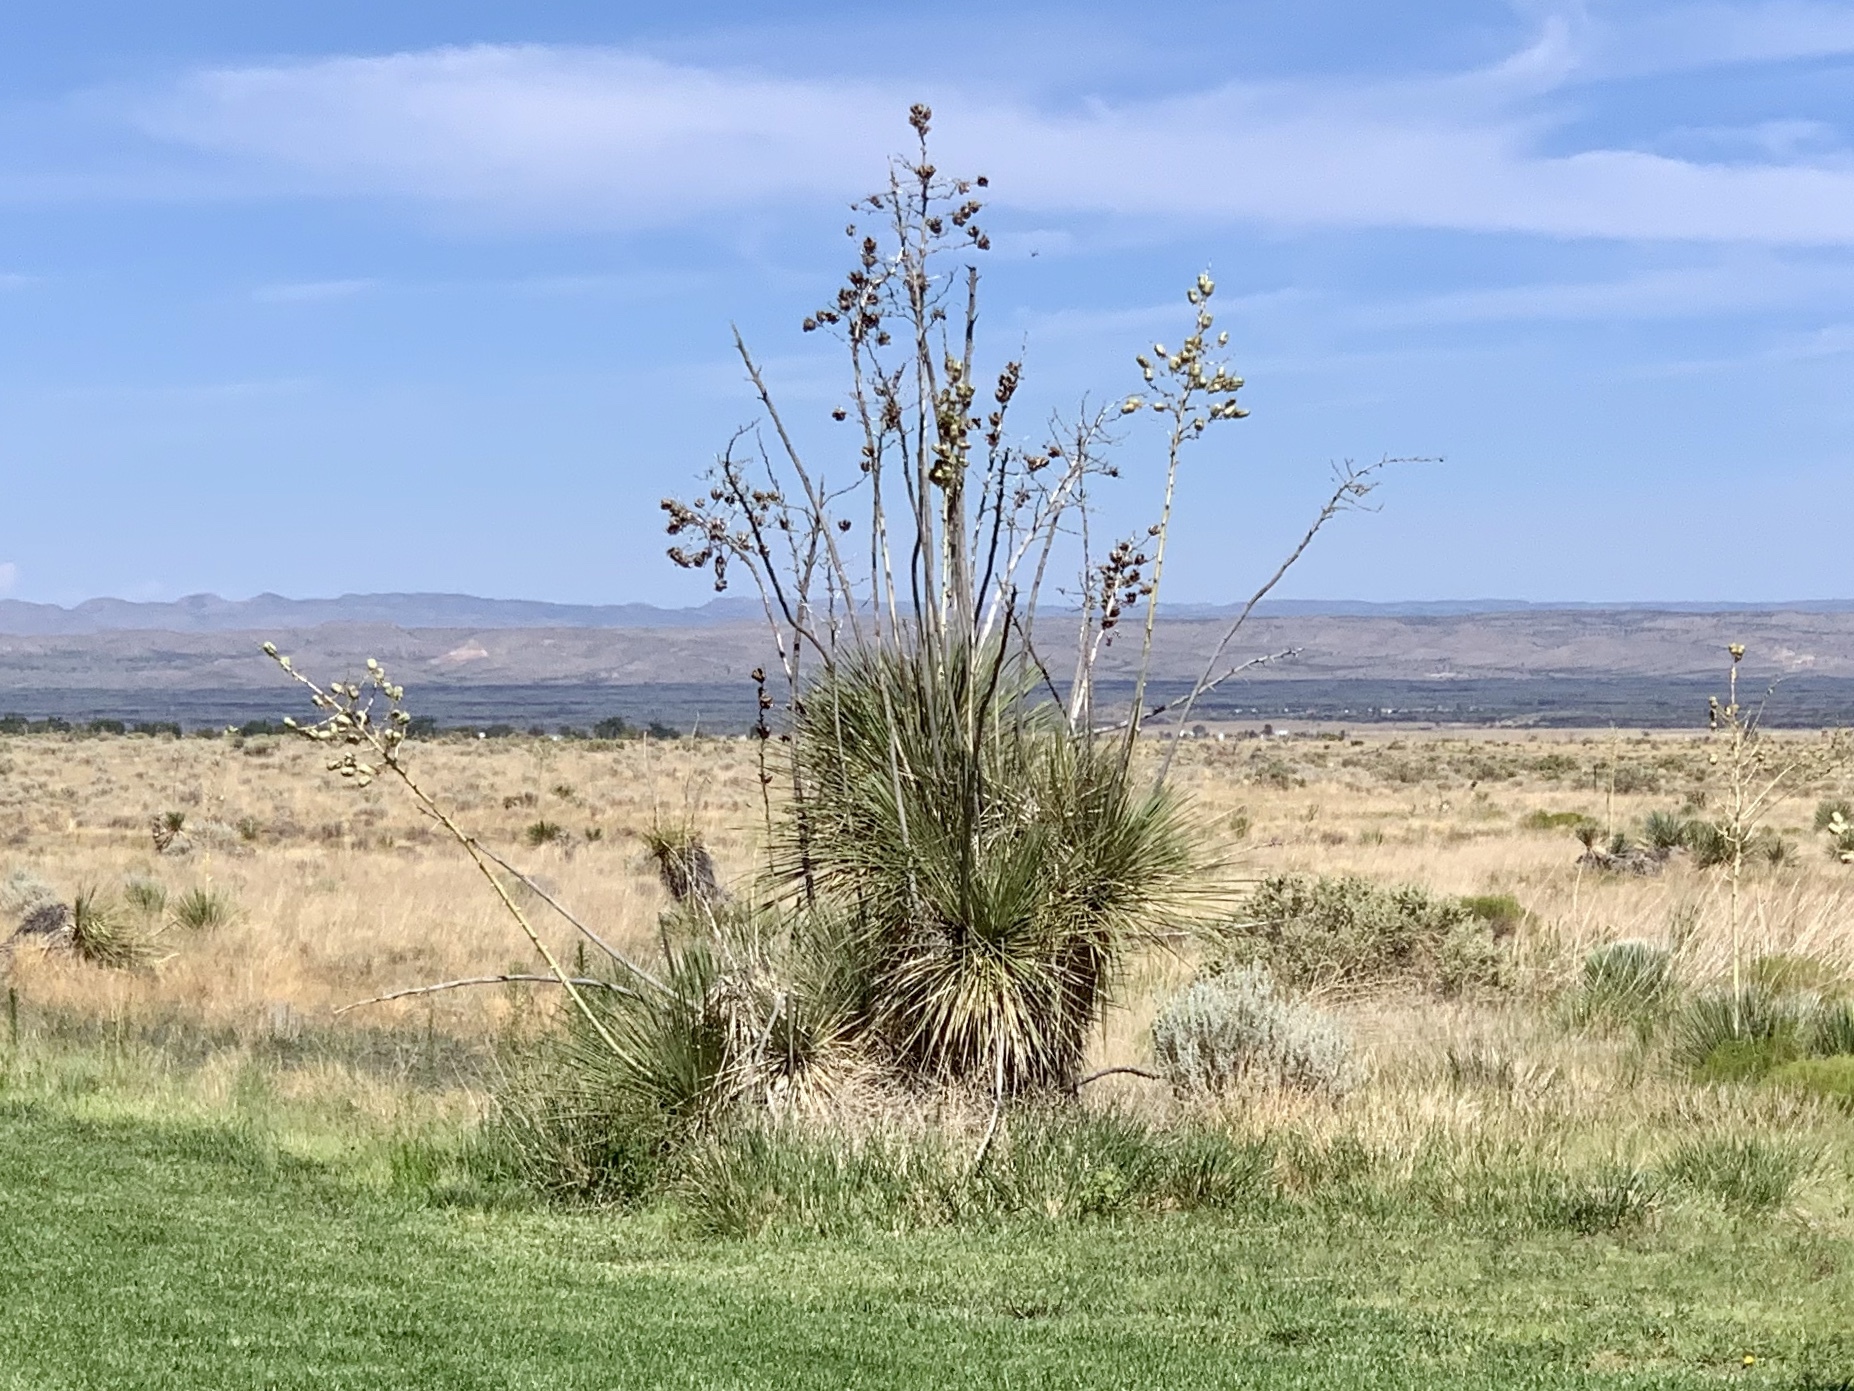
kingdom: Plantae
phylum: Tracheophyta
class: Liliopsida
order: Asparagales
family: Asparagaceae
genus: Yucca
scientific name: Yucca elata
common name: Palmella
